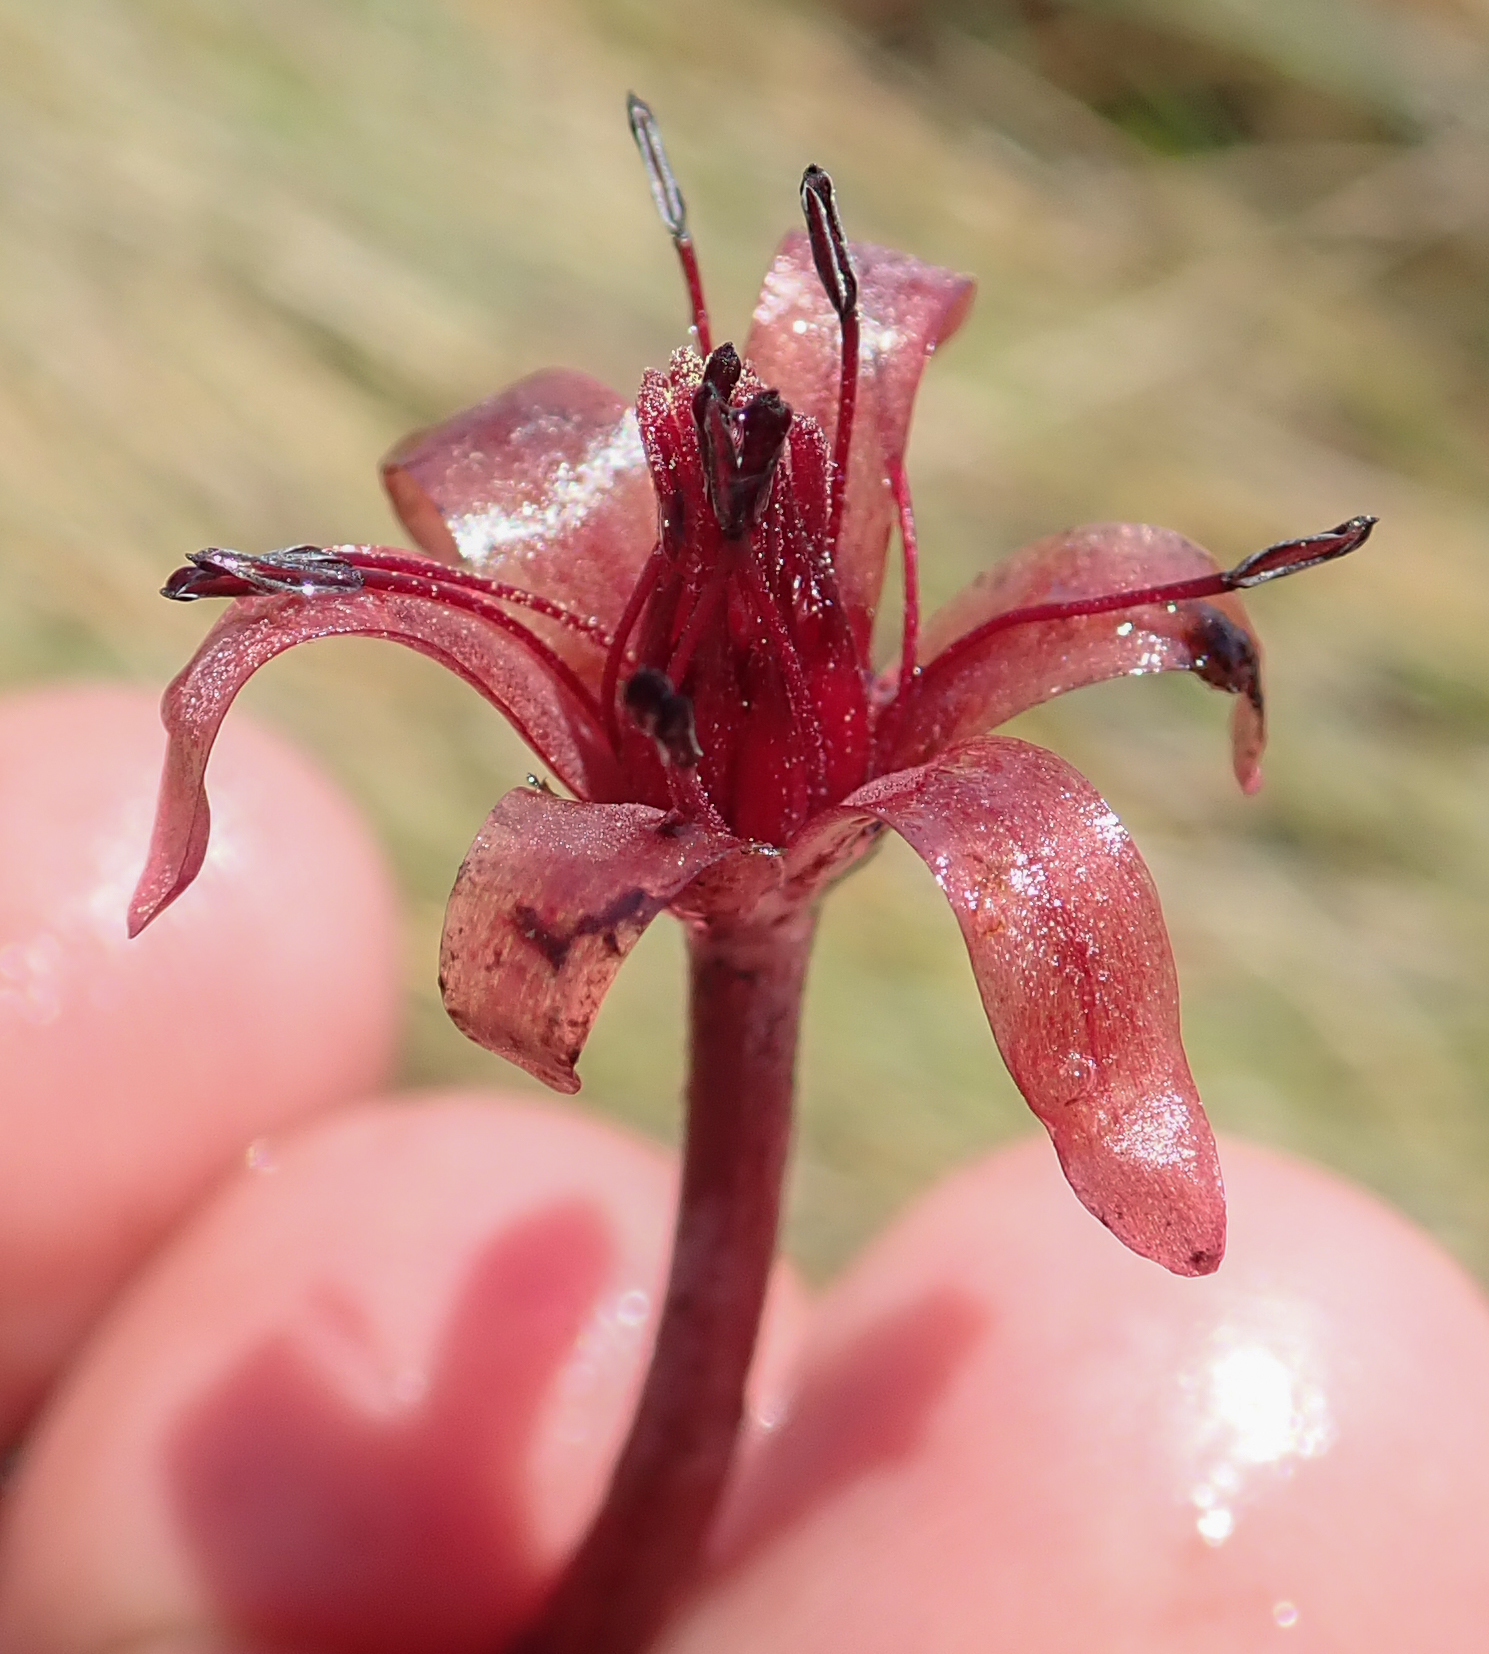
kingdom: Plantae
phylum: Tracheophyta
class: Magnoliopsida
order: Nymphaeales
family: Cabombaceae
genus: Brasenia
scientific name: Brasenia schreberi
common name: Water-shield
